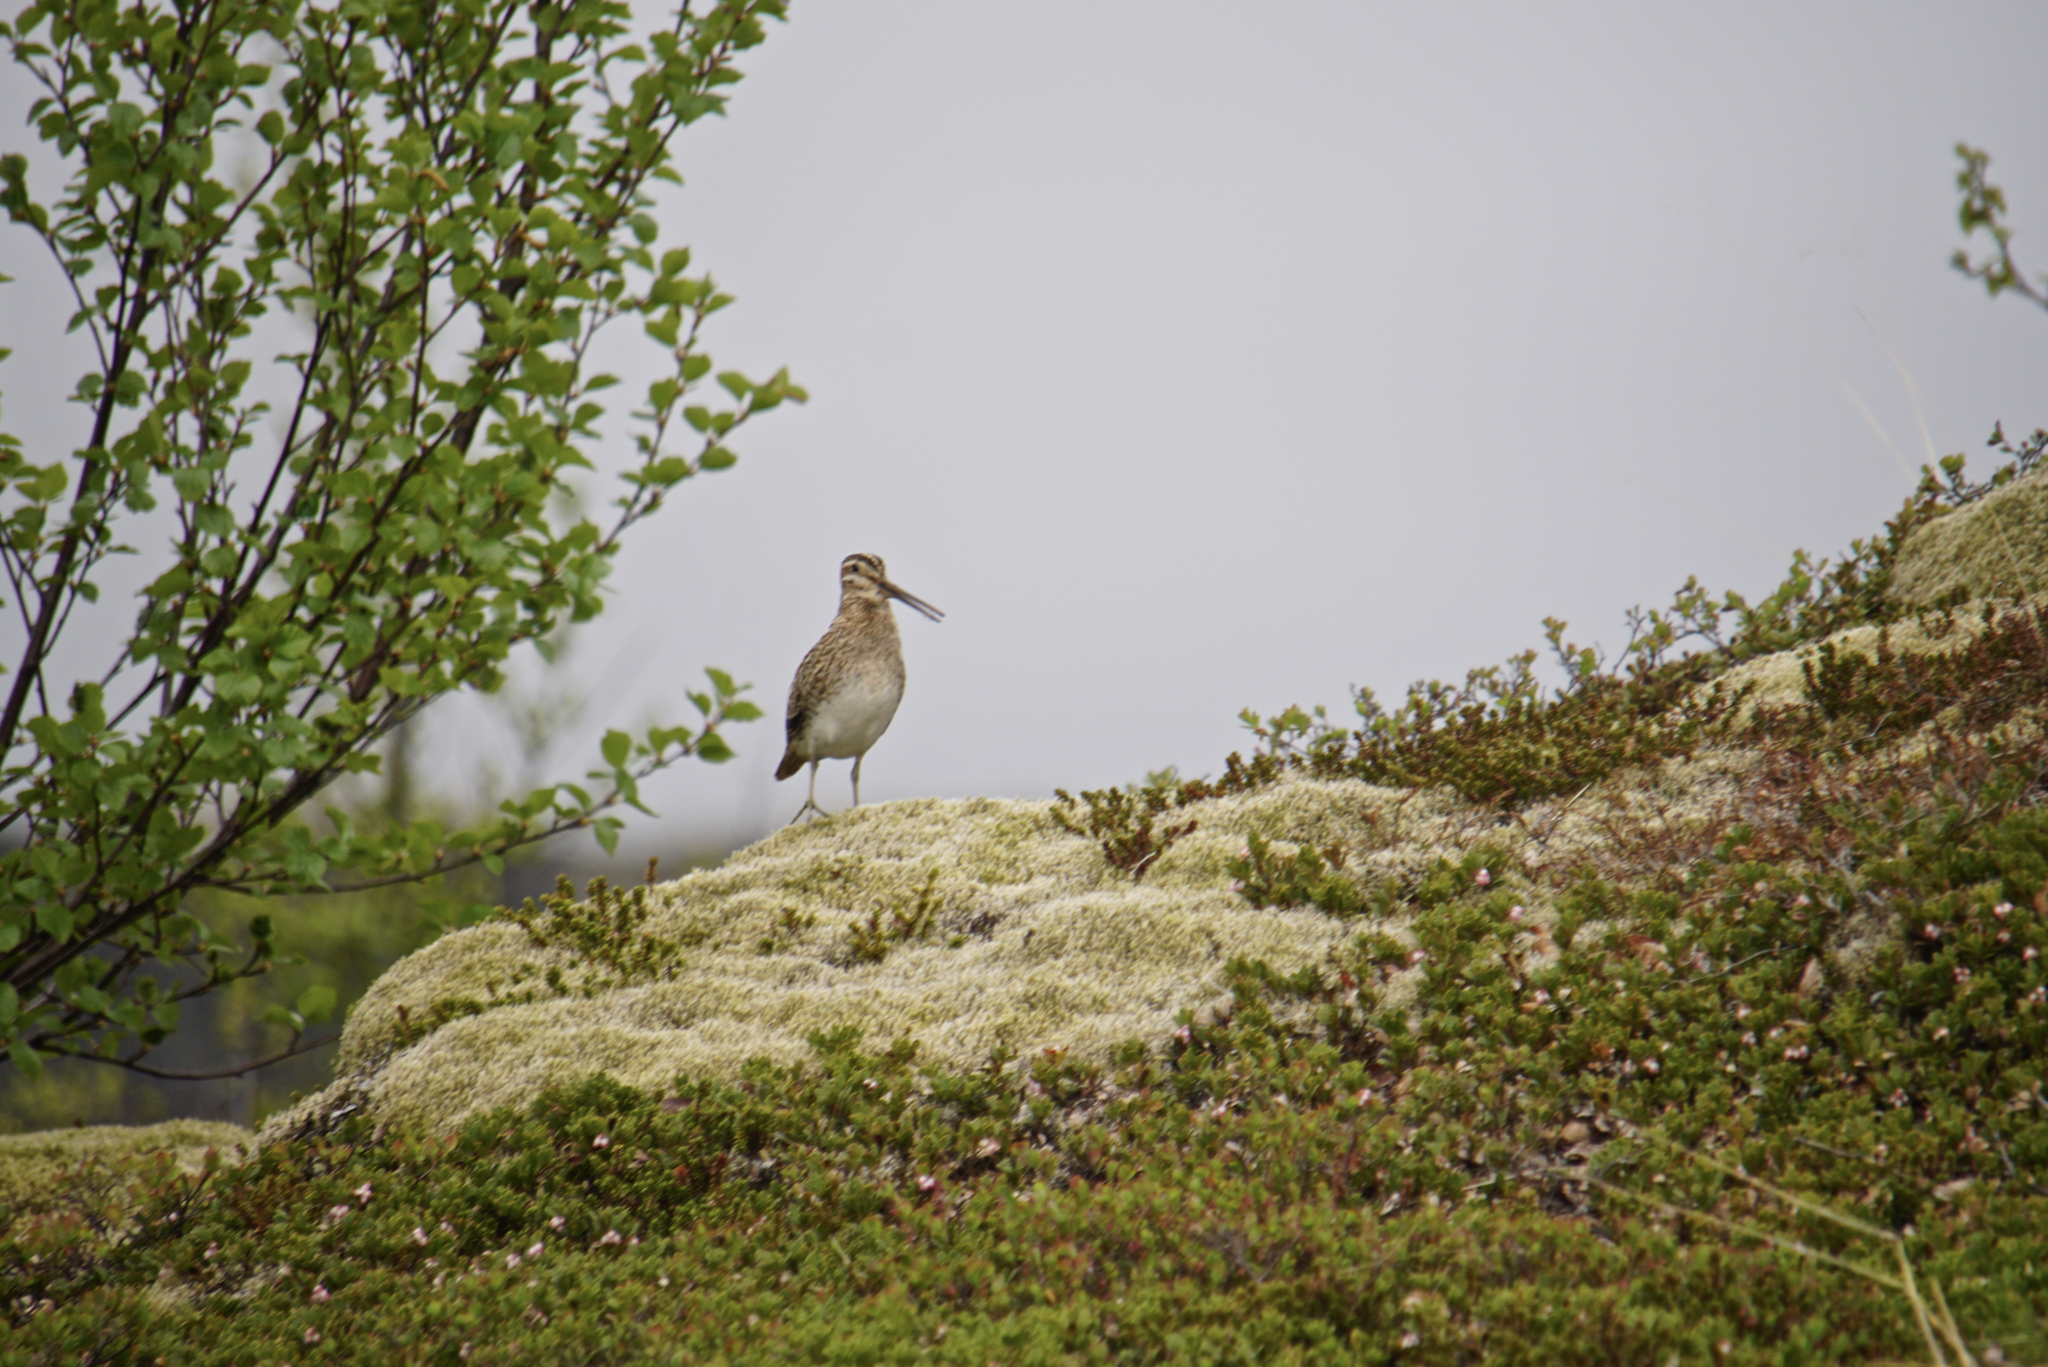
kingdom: Animalia
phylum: Chordata
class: Aves
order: Charadriiformes
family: Scolopacidae
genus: Gallinago
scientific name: Gallinago gallinago
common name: Common snipe
